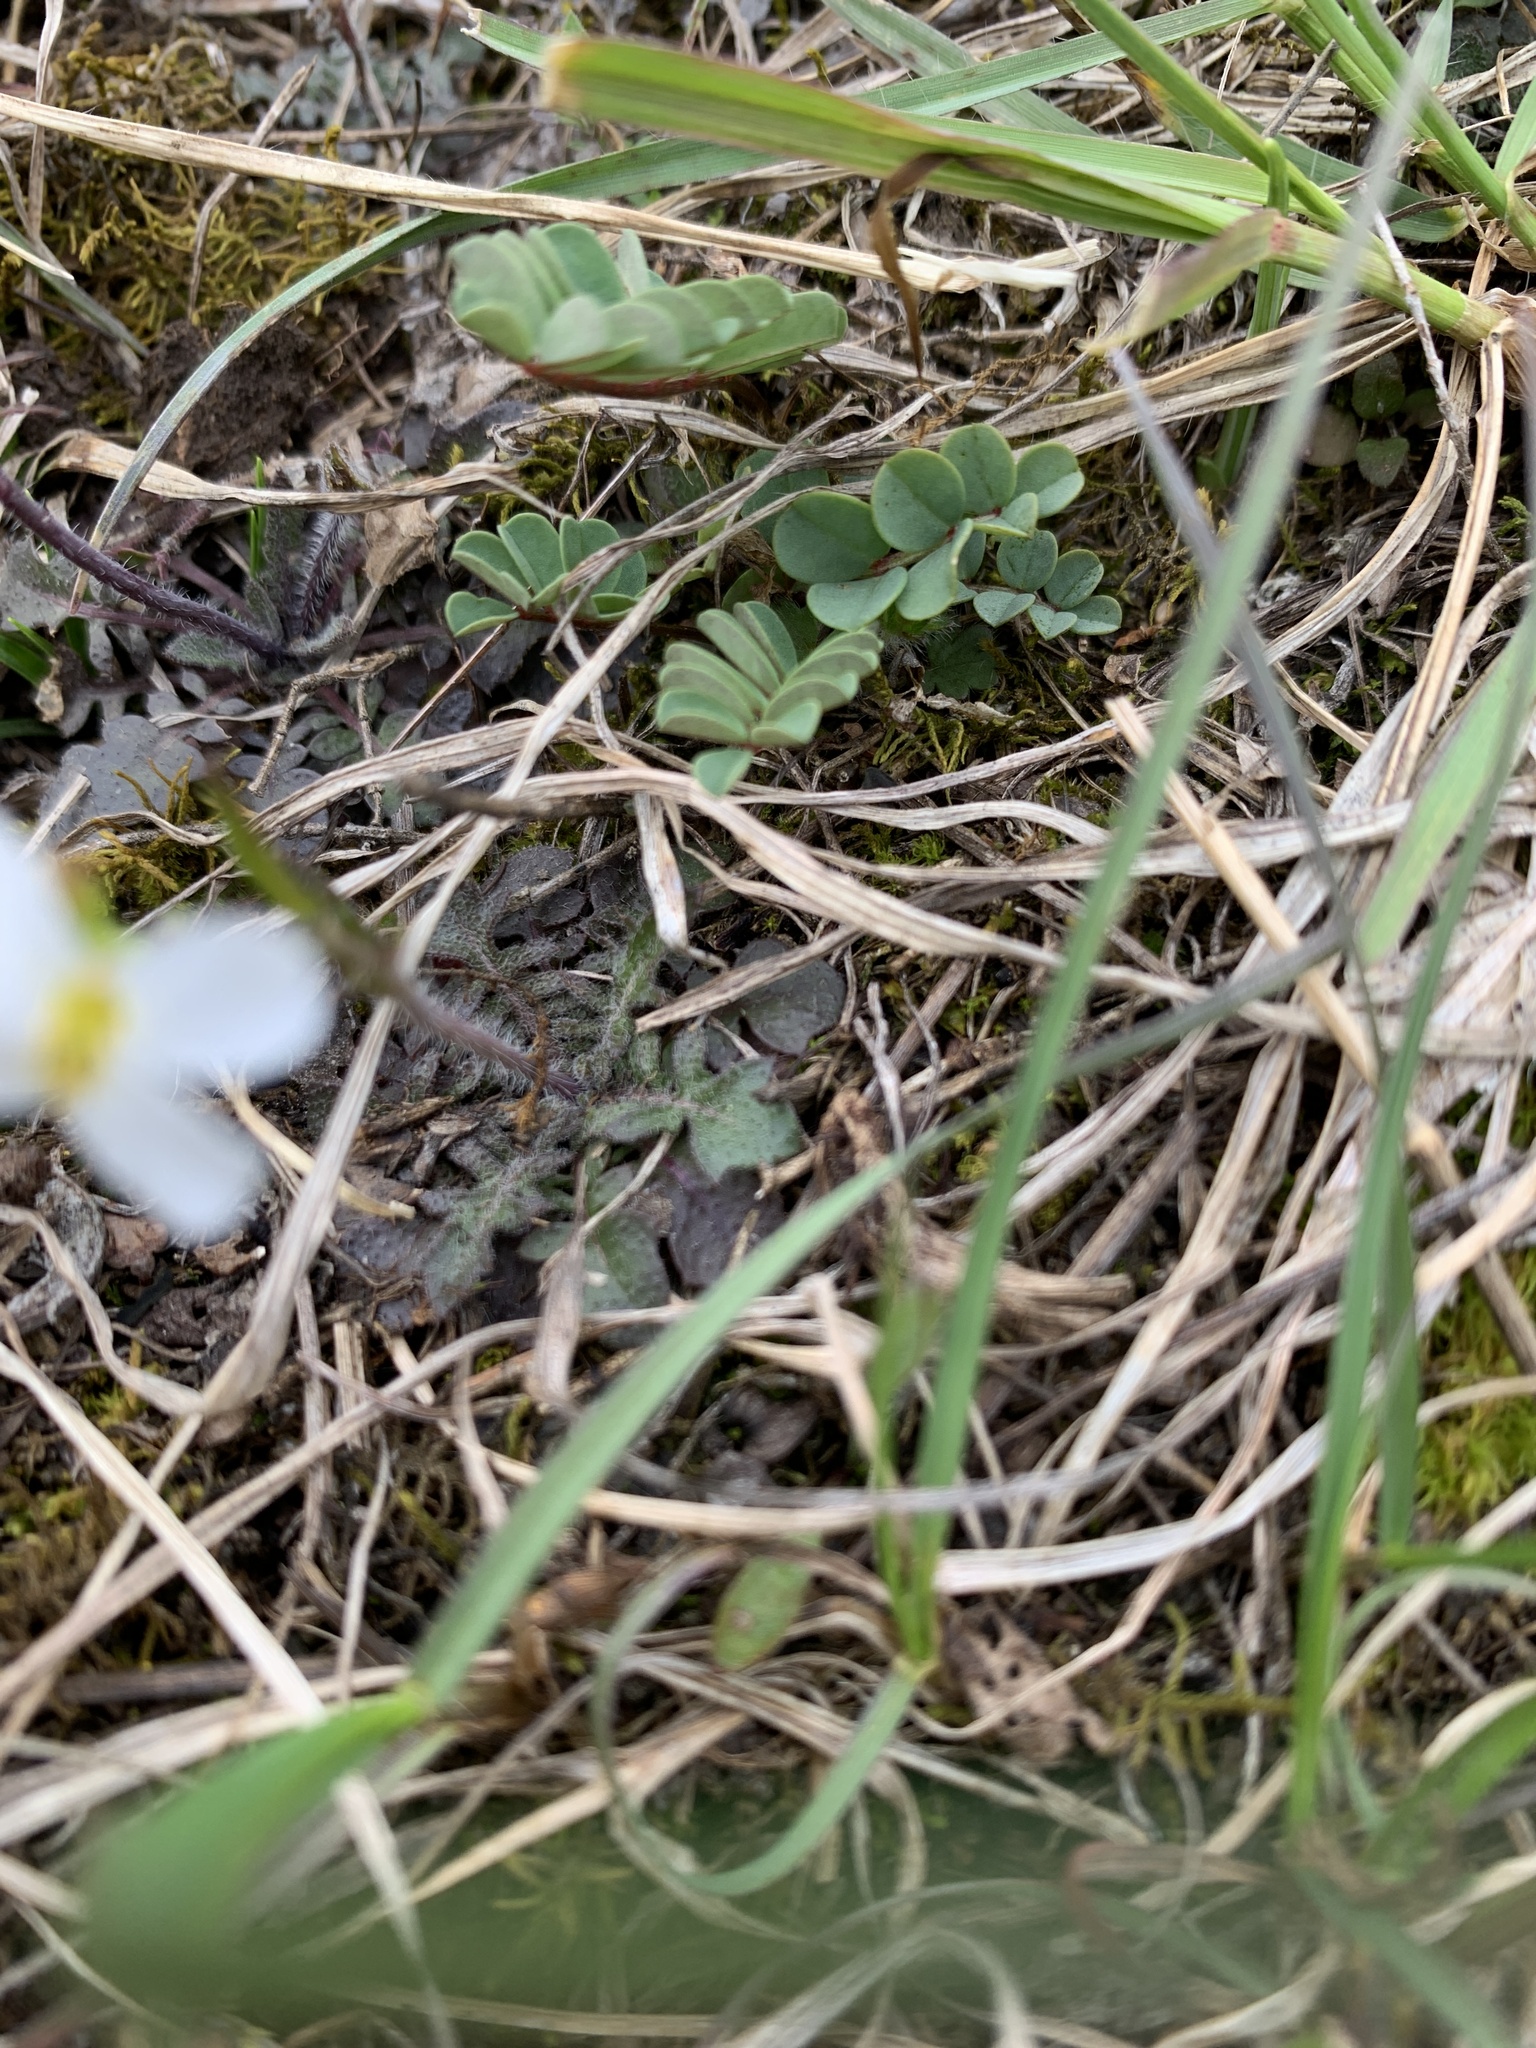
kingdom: Plantae
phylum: Tracheophyta
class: Magnoliopsida
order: Brassicales
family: Brassicaceae
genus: Arabidopsis
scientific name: Arabidopsis arenosa
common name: Sand rock-cress
